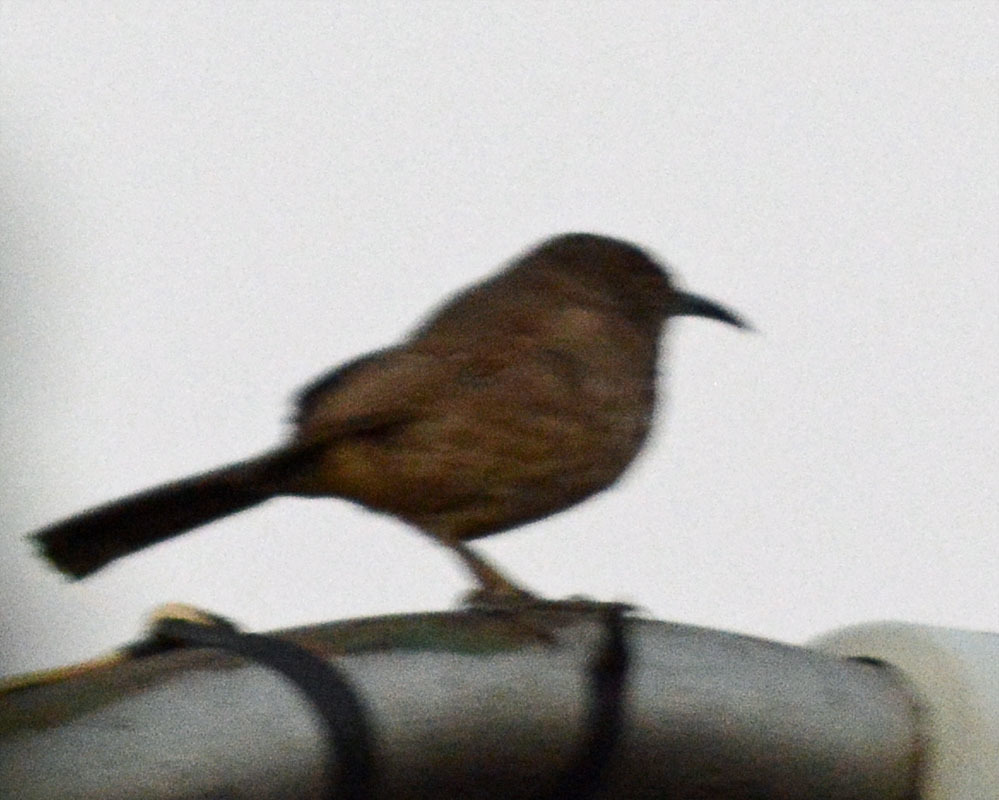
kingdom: Animalia
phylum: Chordata
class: Aves
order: Passeriformes
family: Mimidae
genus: Toxostoma
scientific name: Toxostoma curvirostre
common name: Curve-billed thrasher
